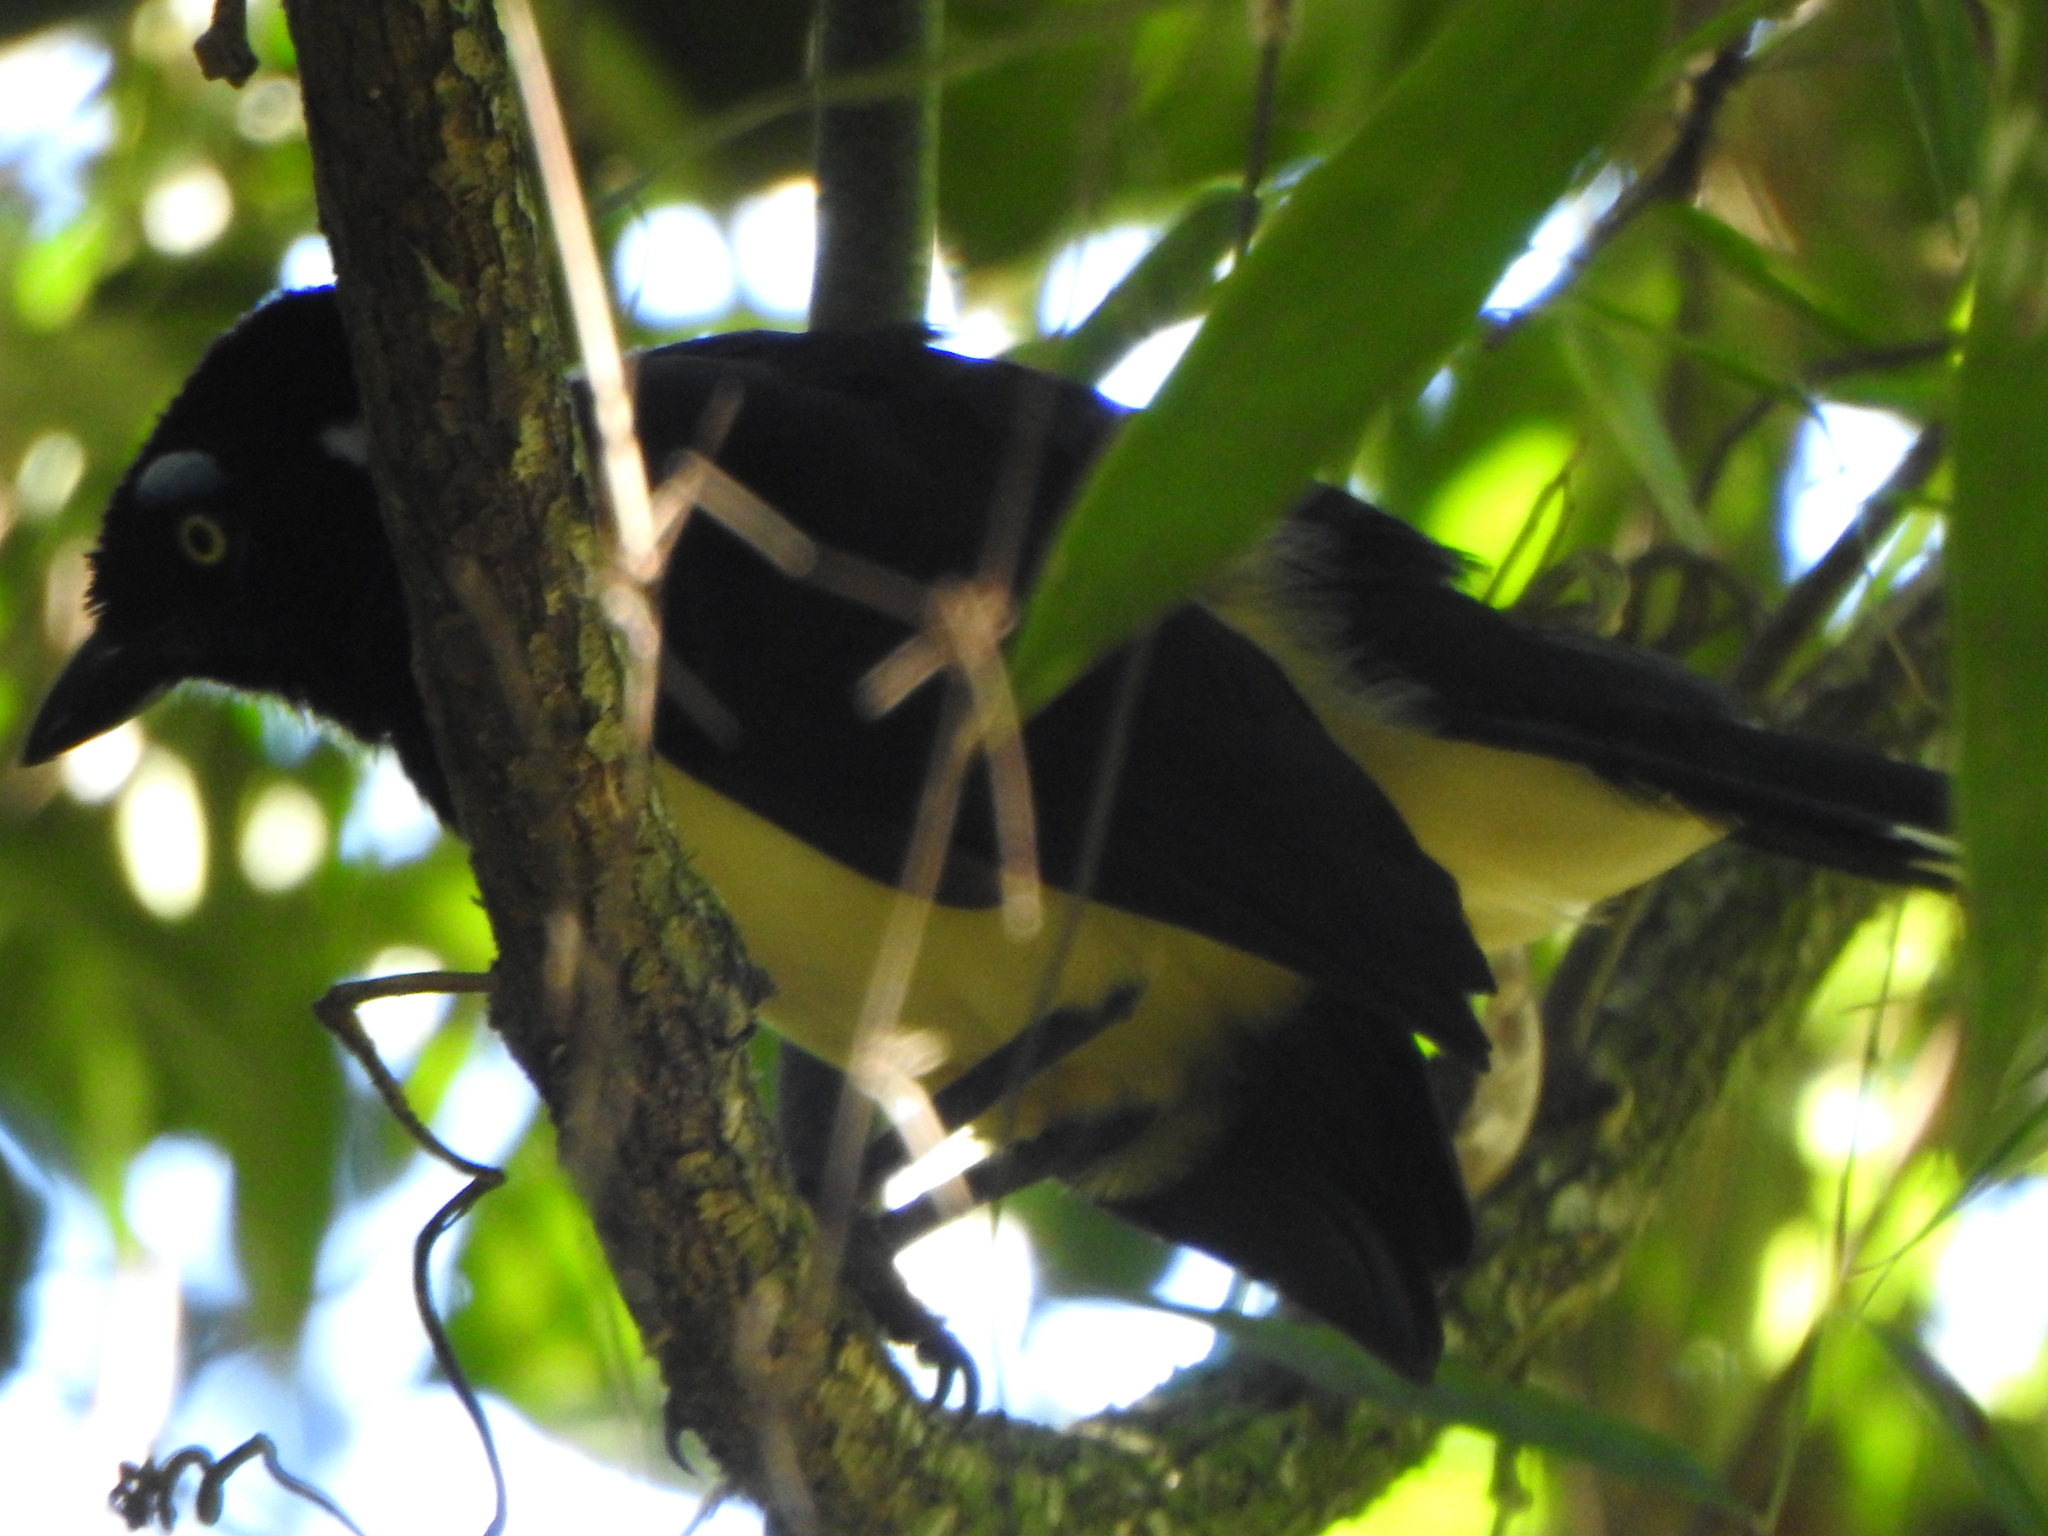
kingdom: Animalia
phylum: Chordata
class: Aves
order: Passeriformes
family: Corvidae
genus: Cyanocorax
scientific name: Cyanocorax chrysops
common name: Plush-crested jay
